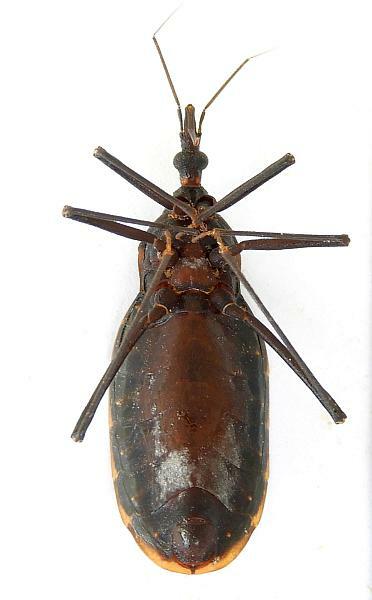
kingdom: Animalia
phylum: Arthropoda
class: Insecta
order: Hemiptera
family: Reduviidae
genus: Triatoma
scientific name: Triatoma recurva
